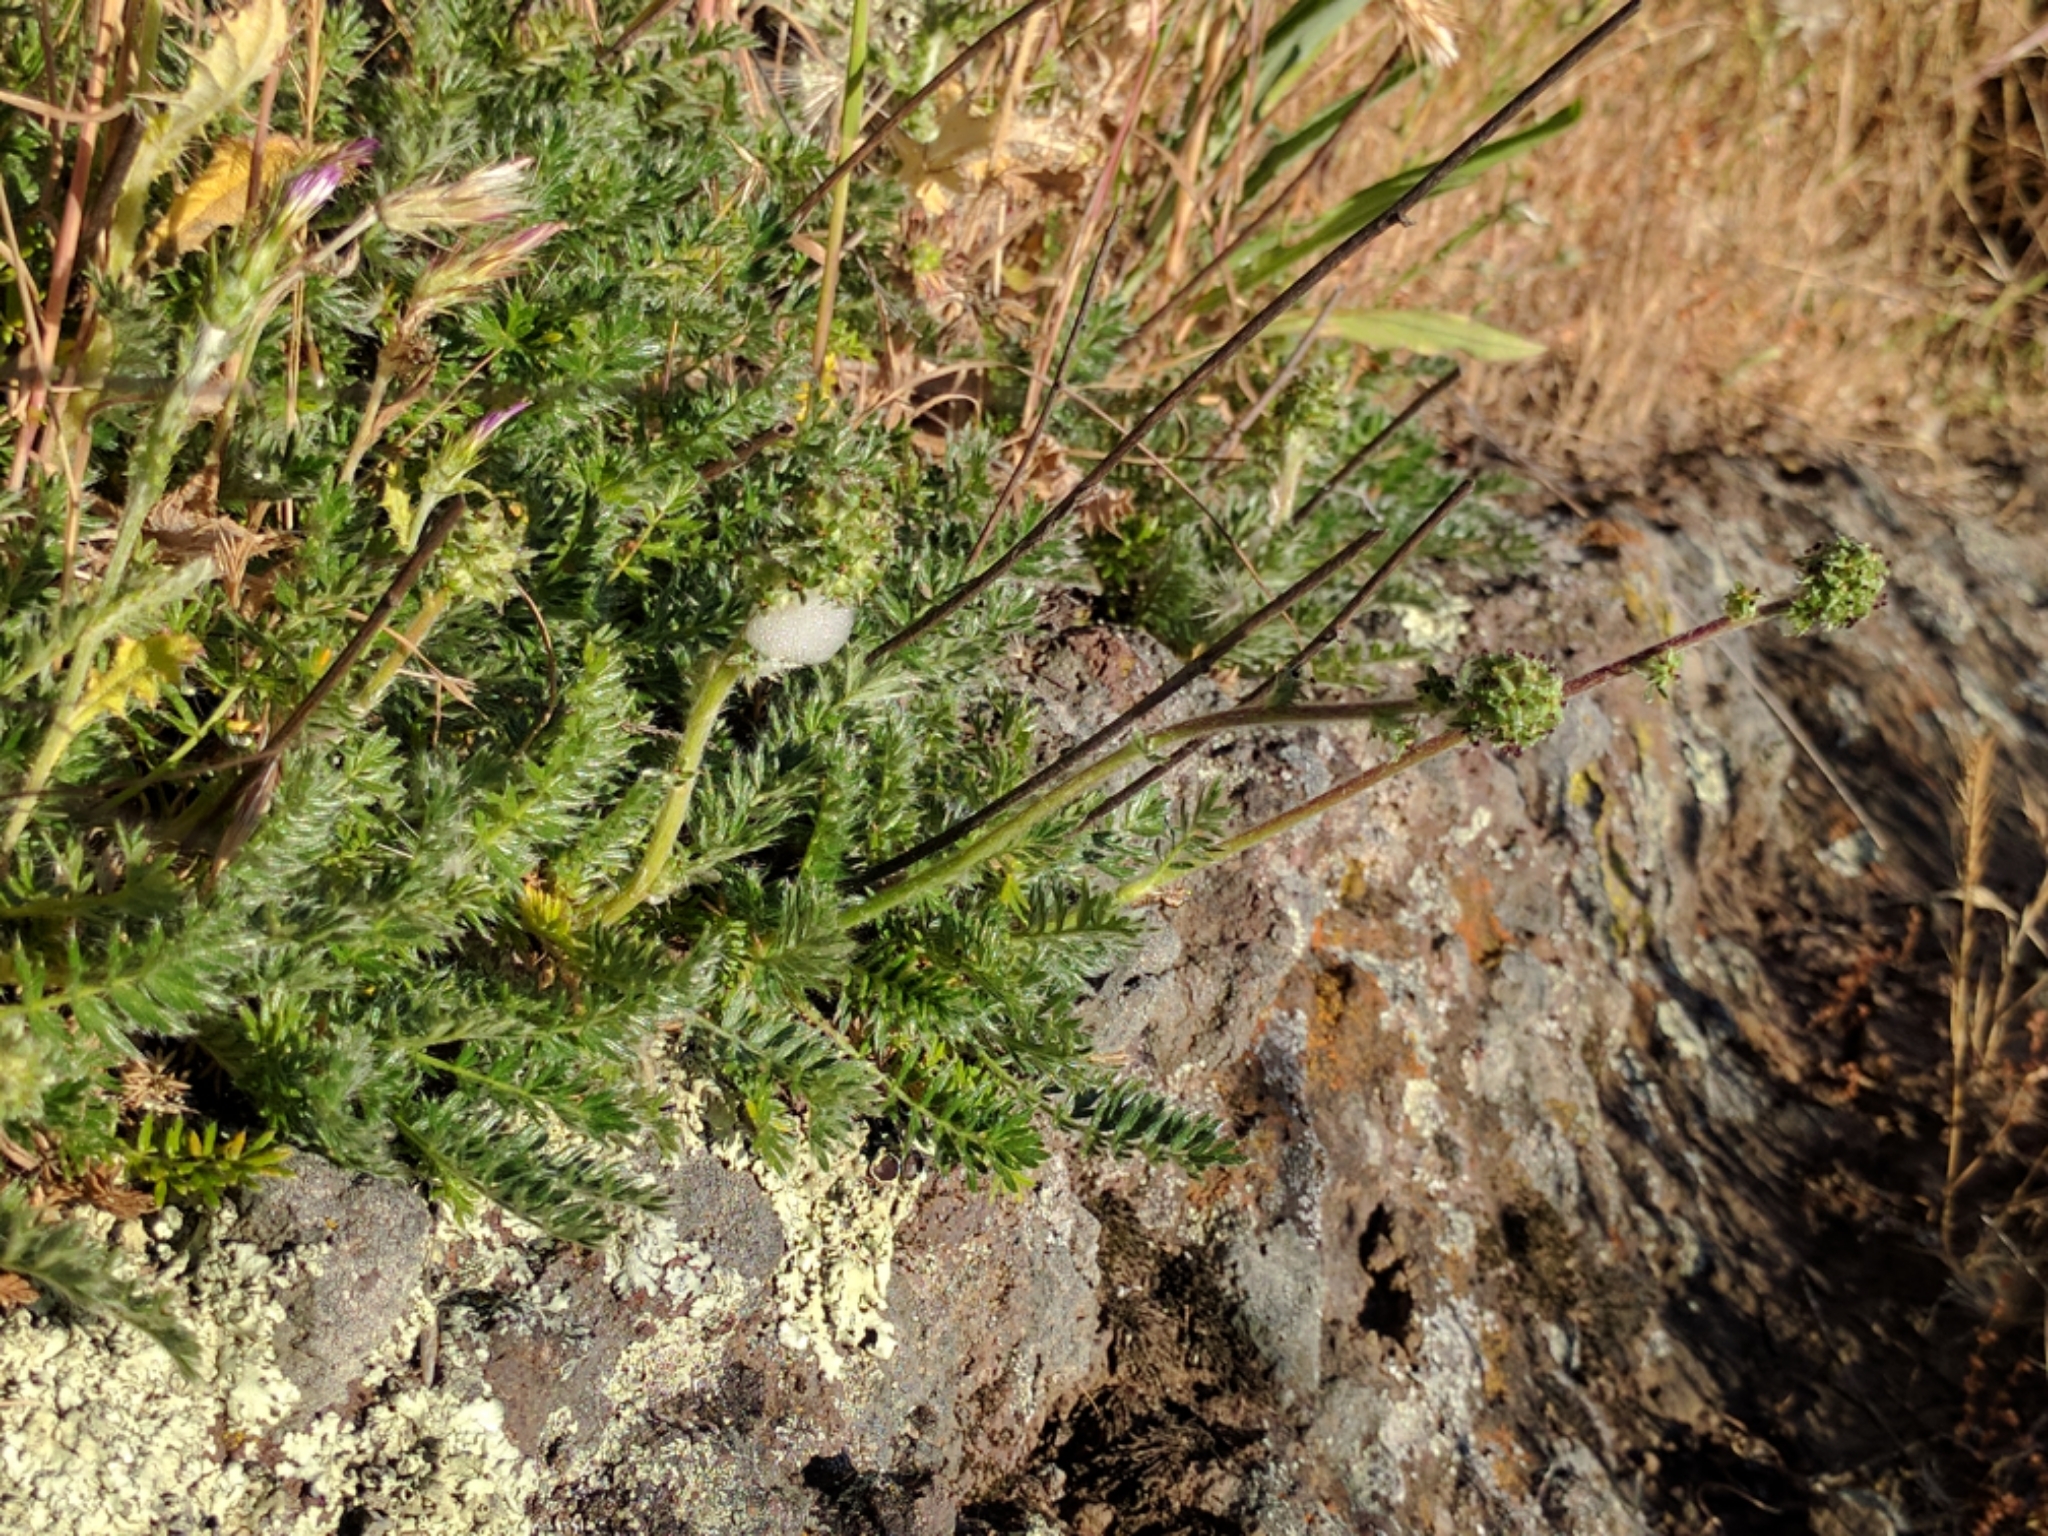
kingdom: Plantae
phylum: Tracheophyta
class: Magnoliopsida
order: Rosales
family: Rosaceae
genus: Acaena
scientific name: Acaena pinnatifida
